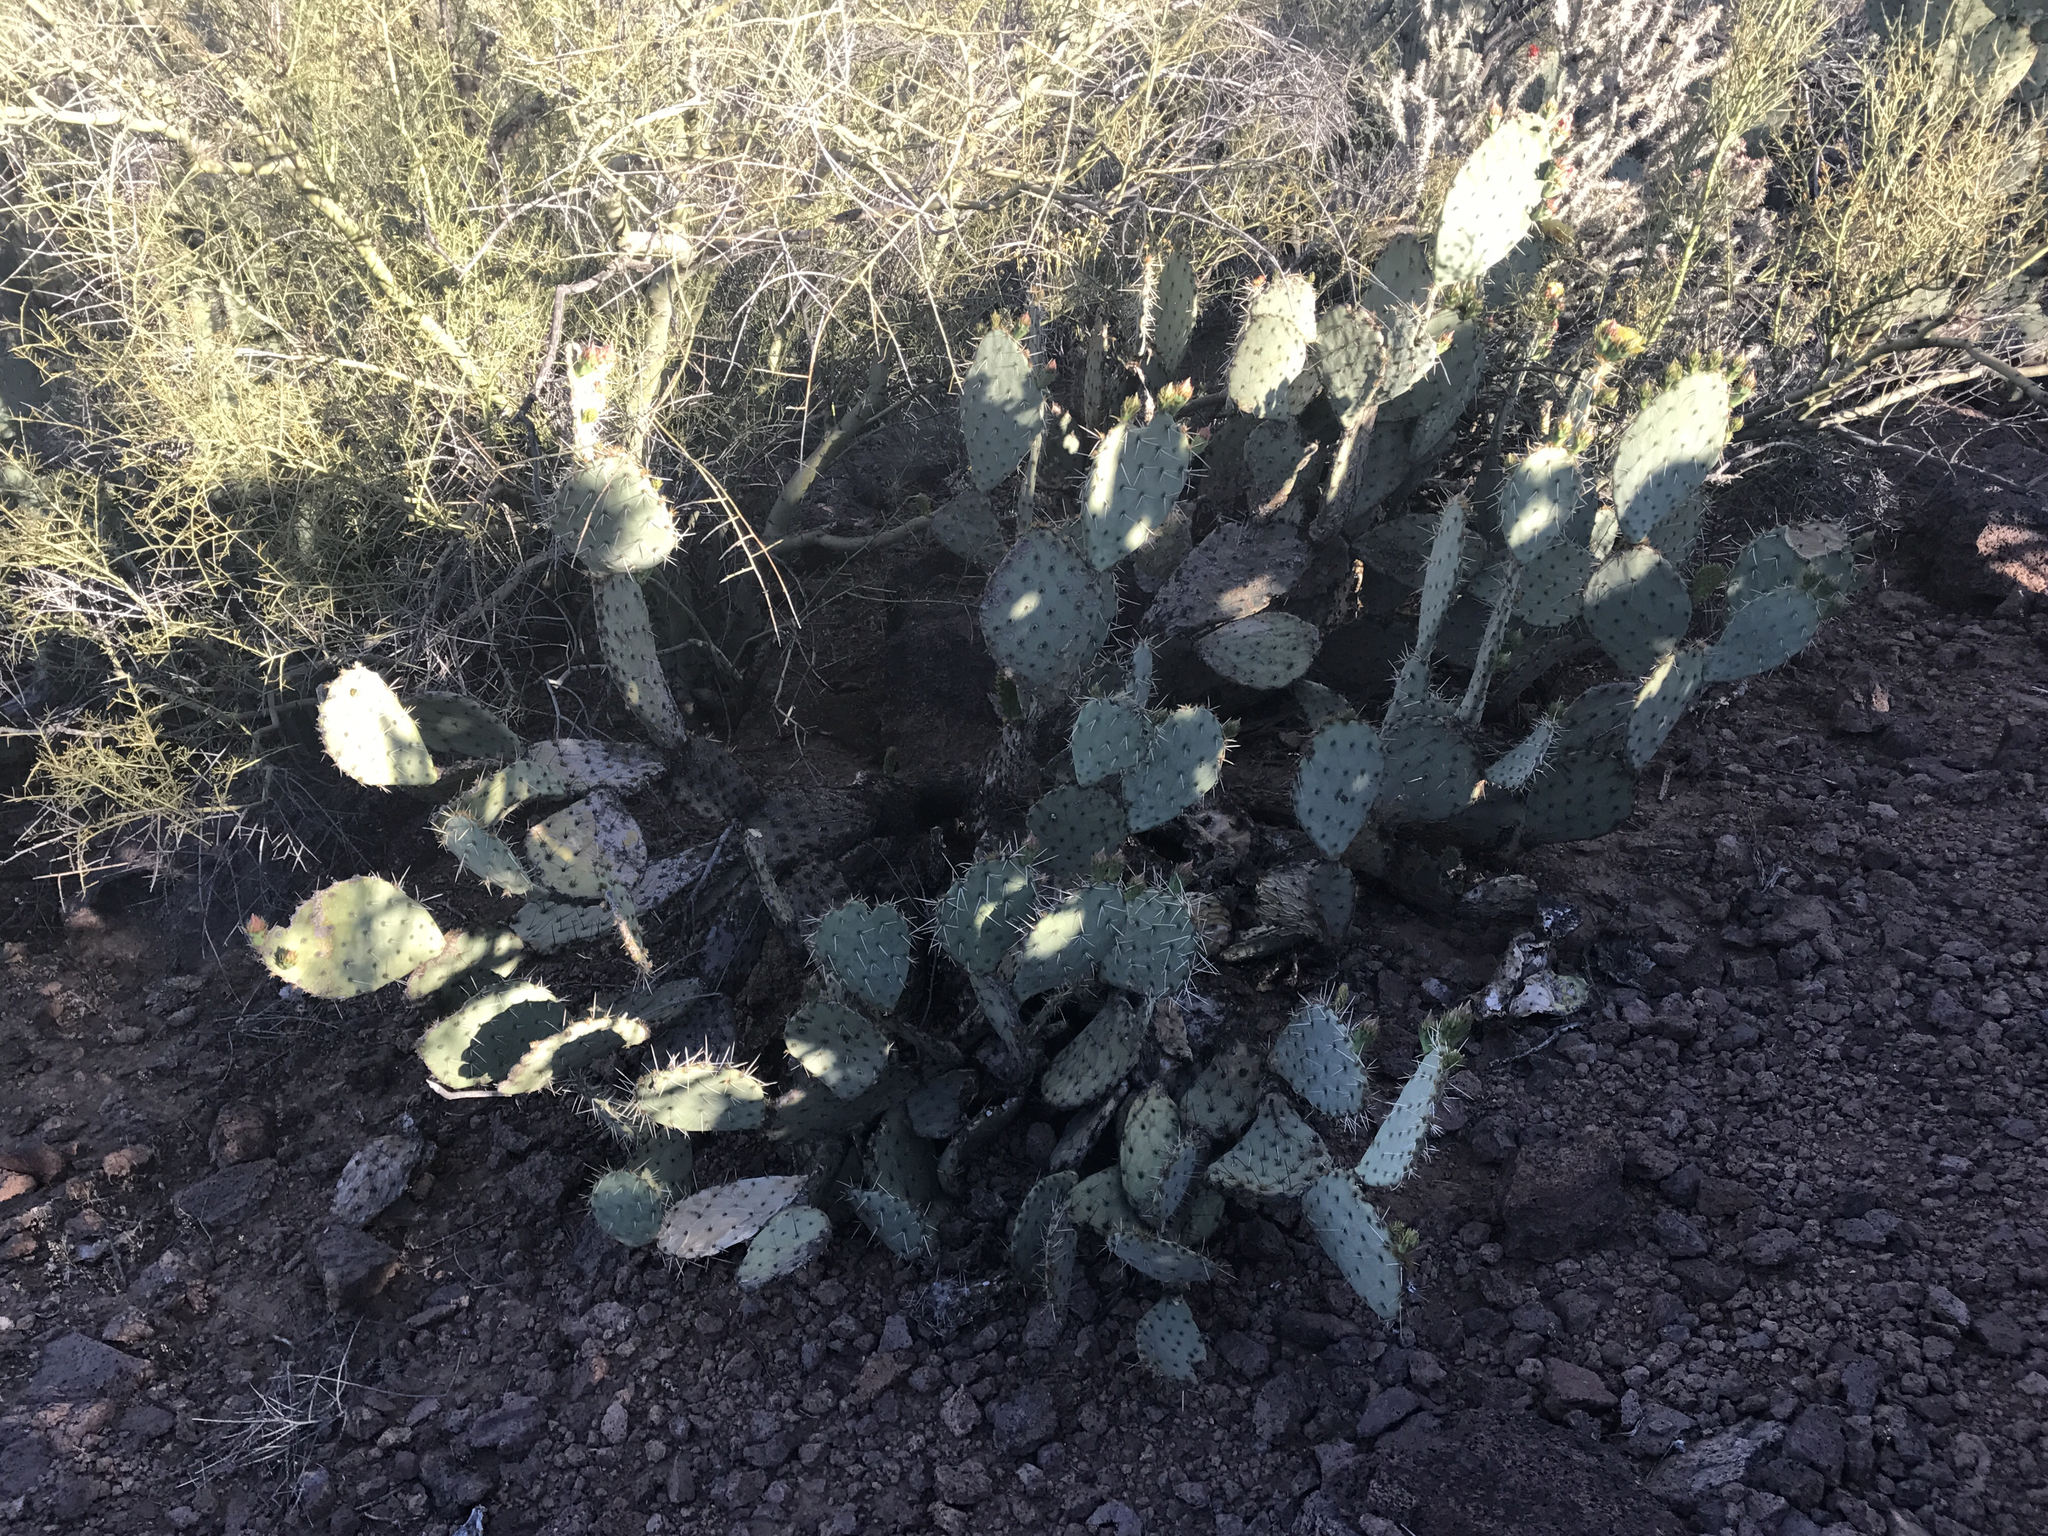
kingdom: Plantae
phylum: Tracheophyta
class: Magnoliopsida
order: Caryophyllales
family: Cactaceae
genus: Opuntia
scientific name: Opuntia engelmannii
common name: Cactus-apple
